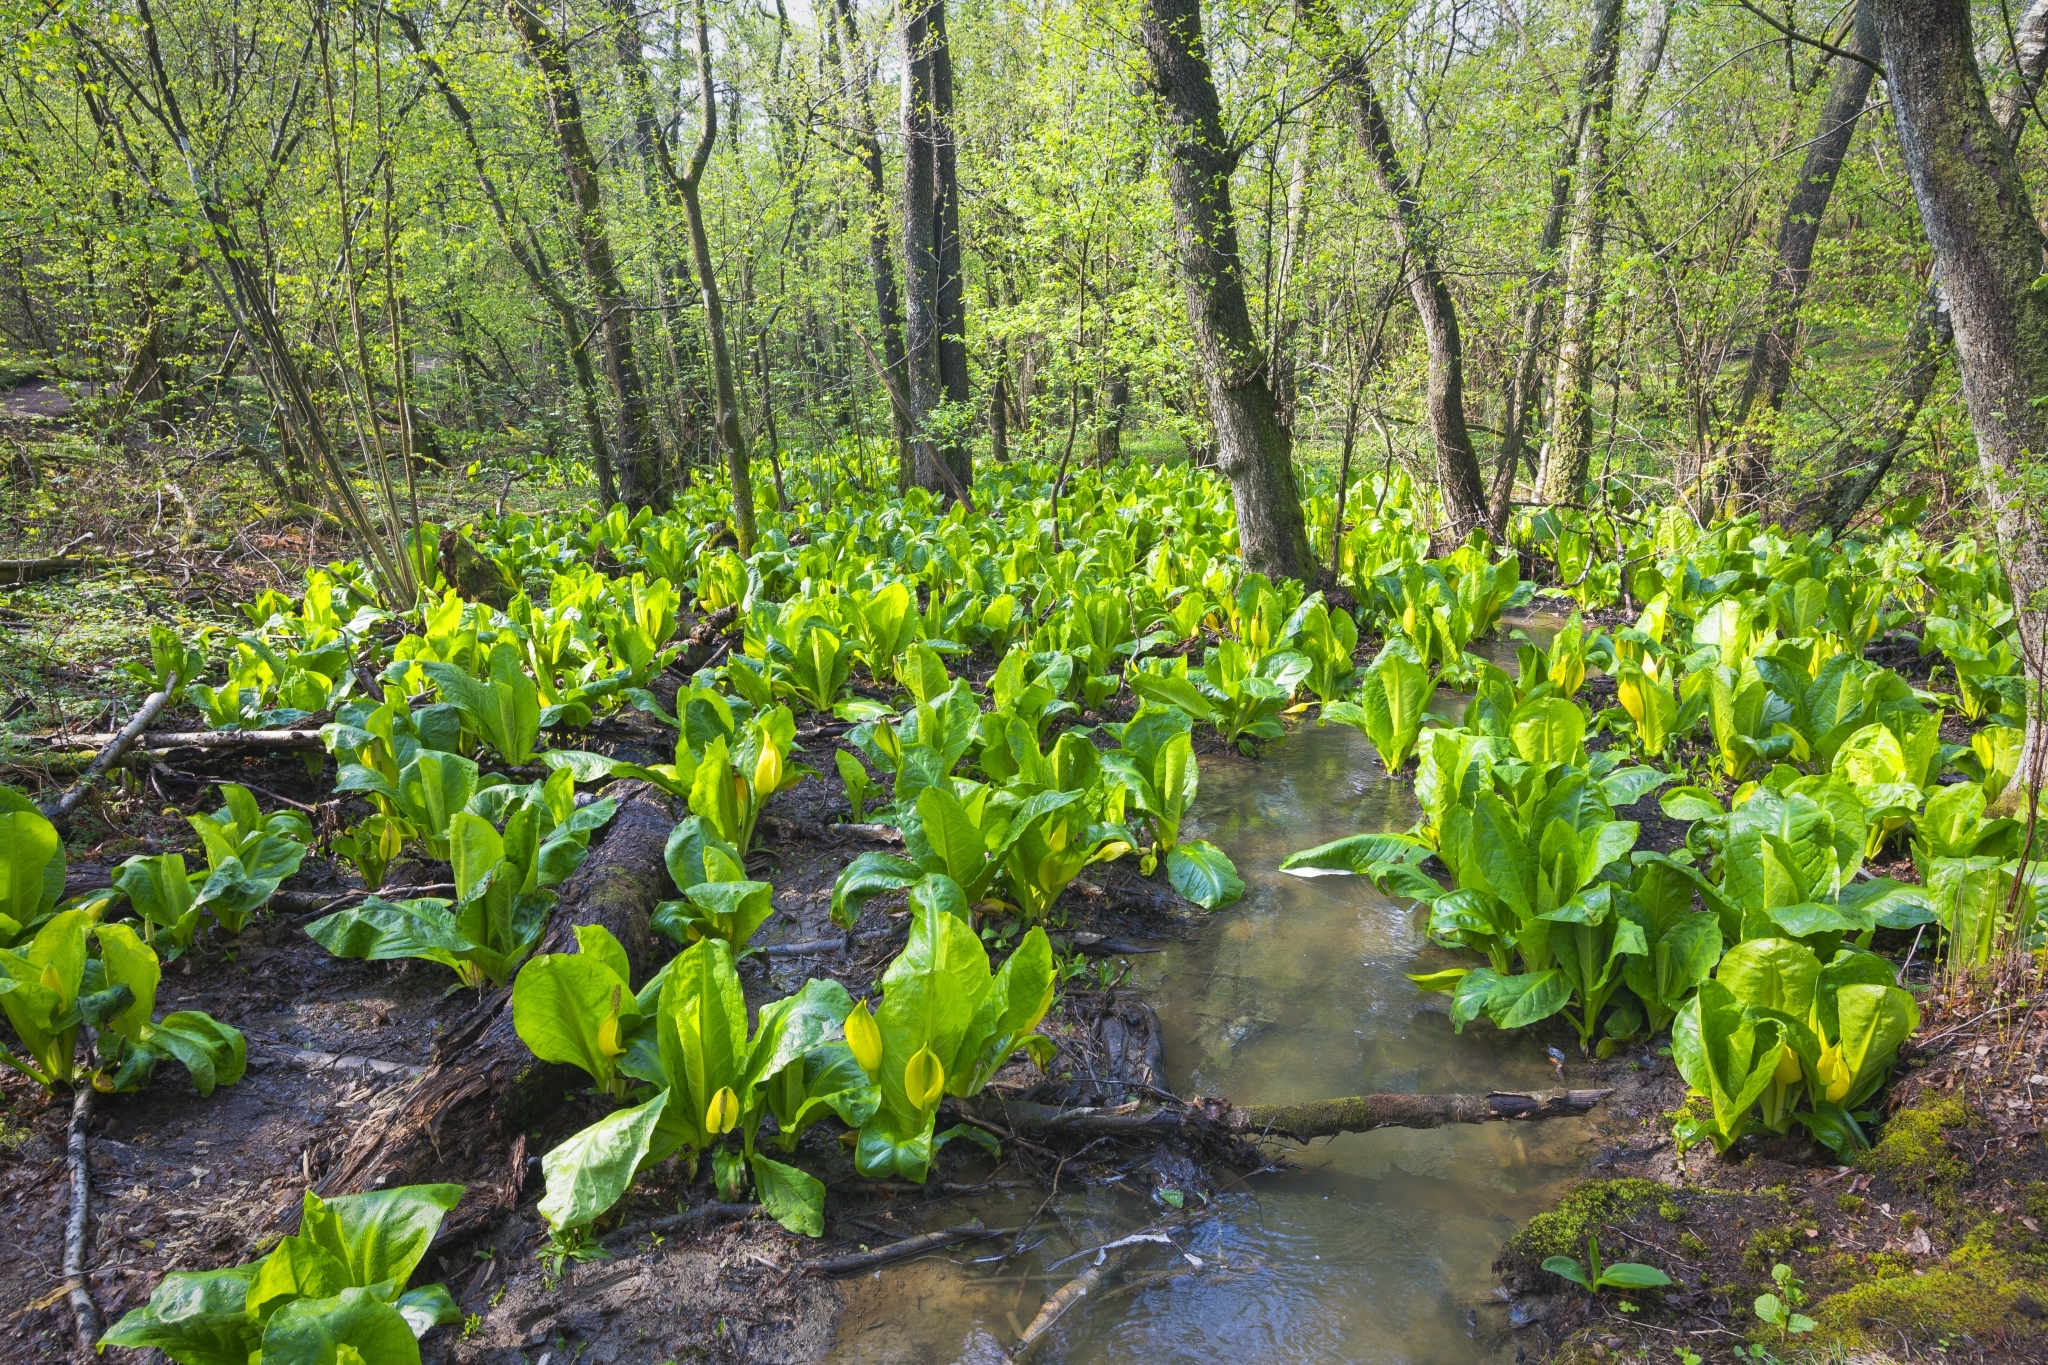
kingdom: Plantae
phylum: Tracheophyta
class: Liliopsida
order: Alismatales
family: Araceae
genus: Lysichiton
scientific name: Lysichiton americanus
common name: American skunk cabbage
